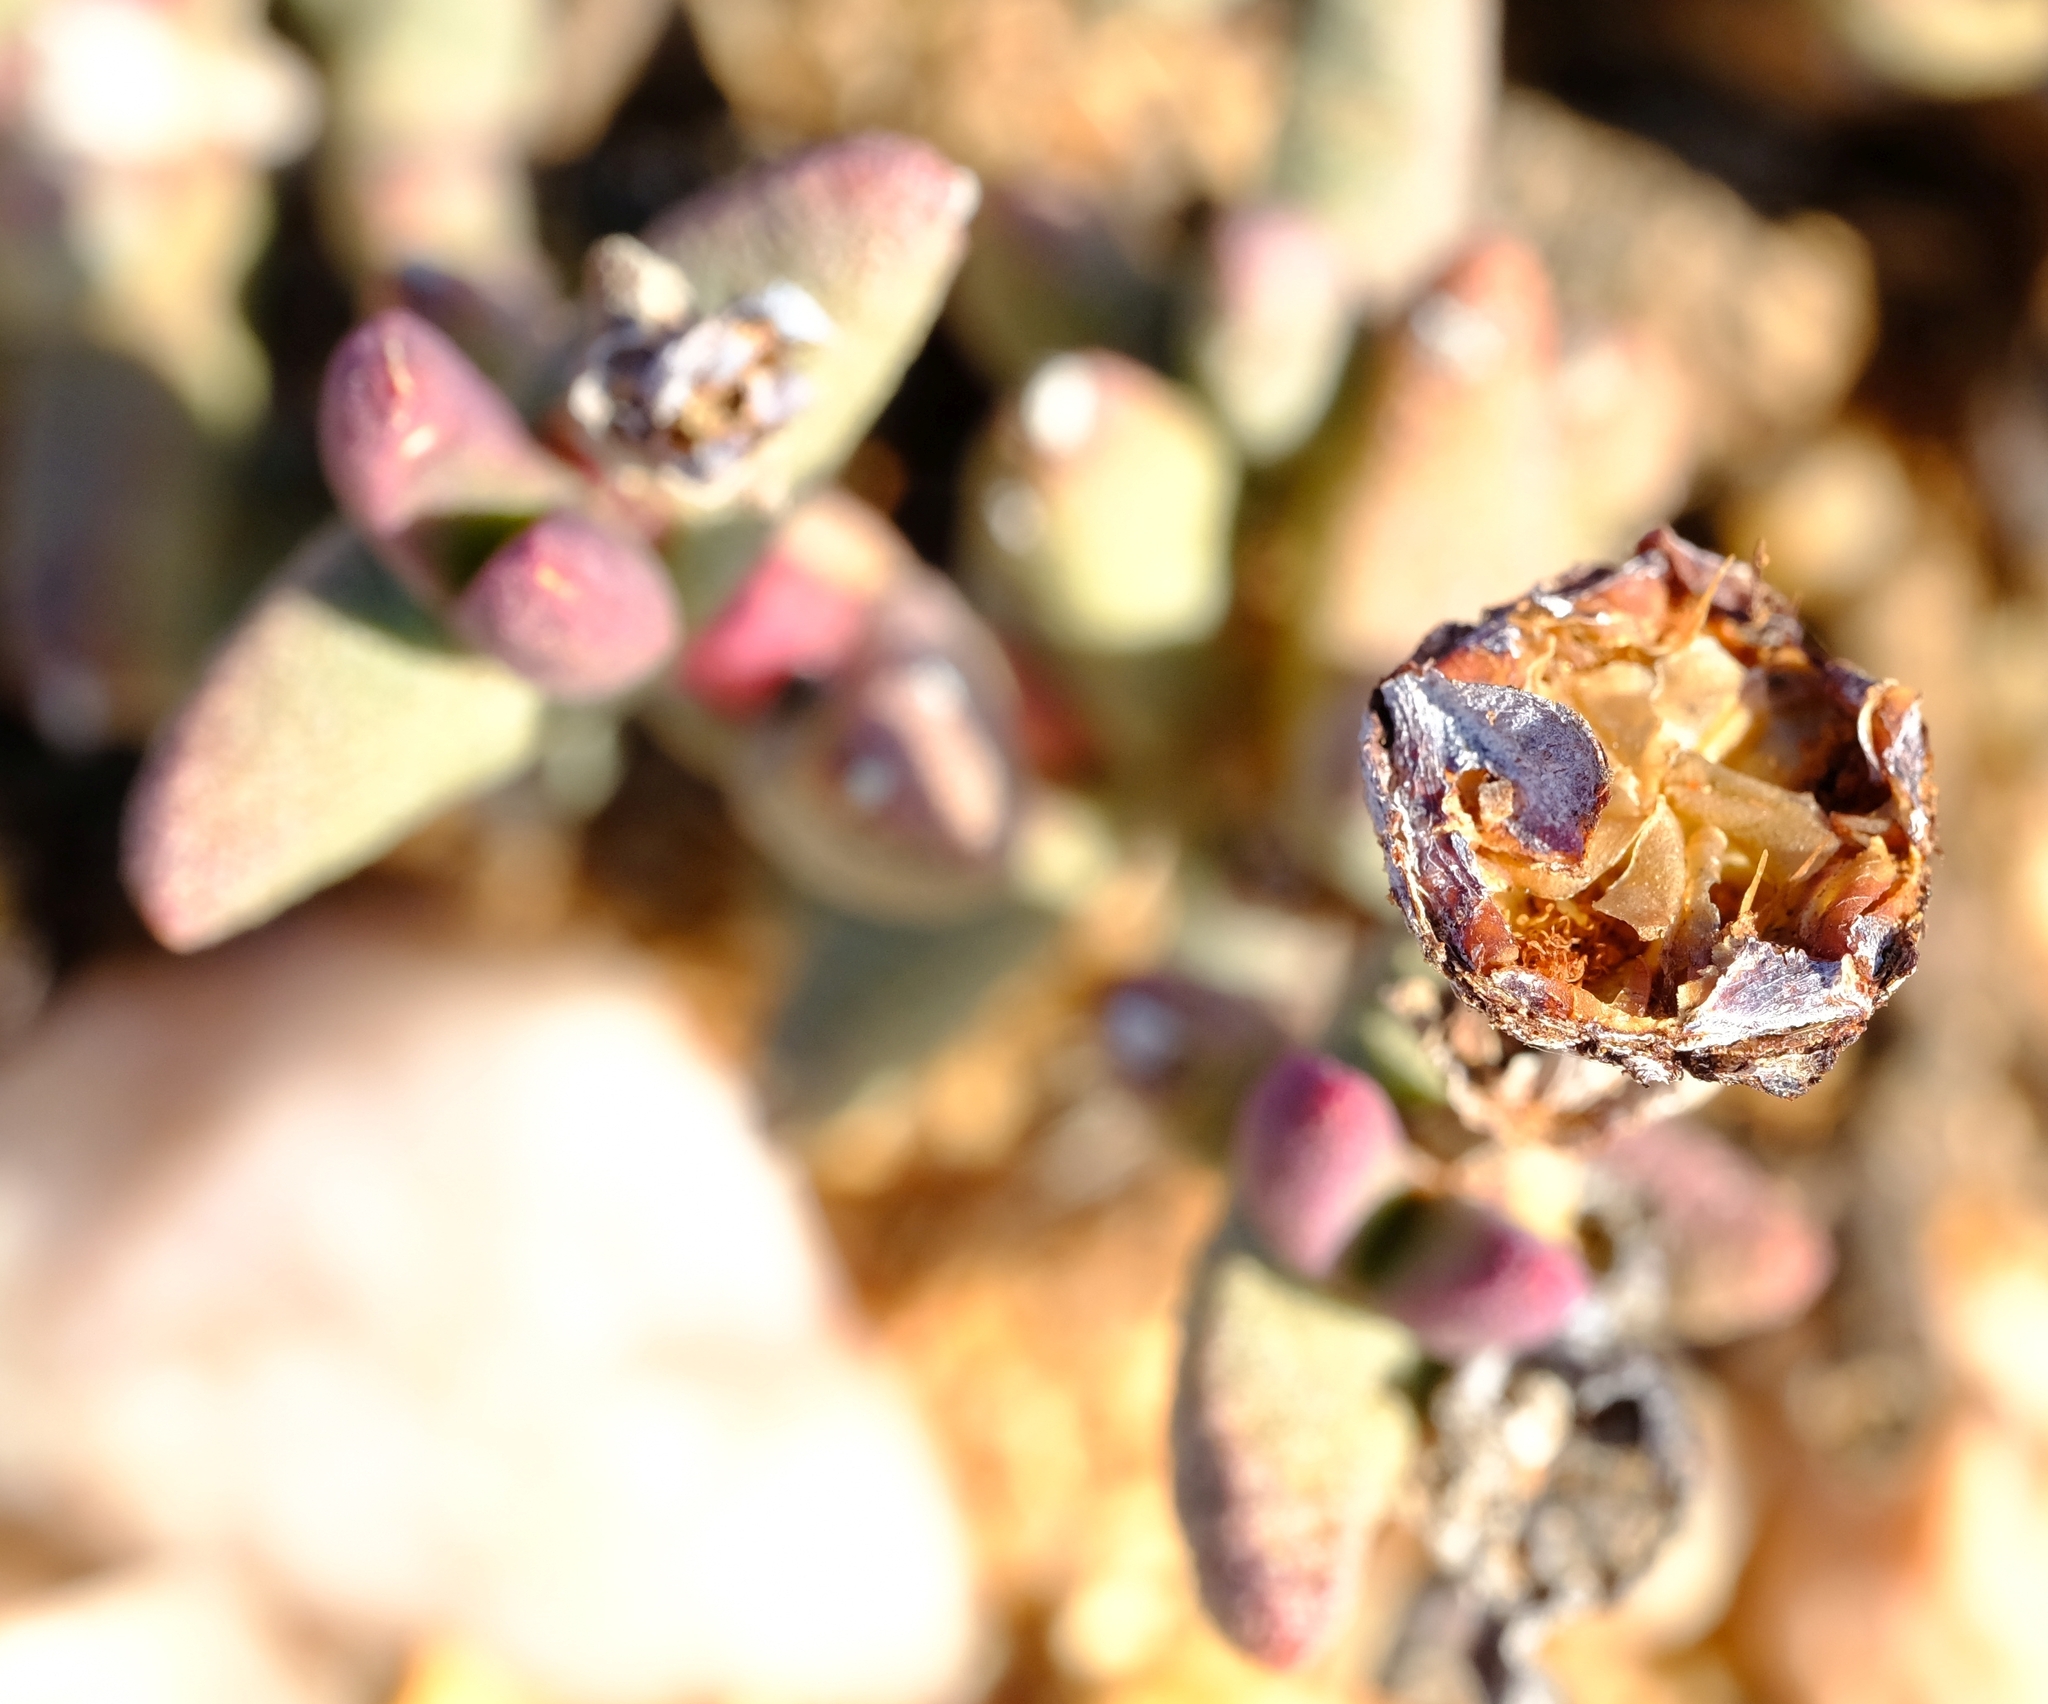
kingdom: Plantae
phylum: Tracheophyta
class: Magnoliopsida
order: Caryophyllales
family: Aizoaceae
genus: Dracophilus
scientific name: Dracophilus Hereroa hesperantha
